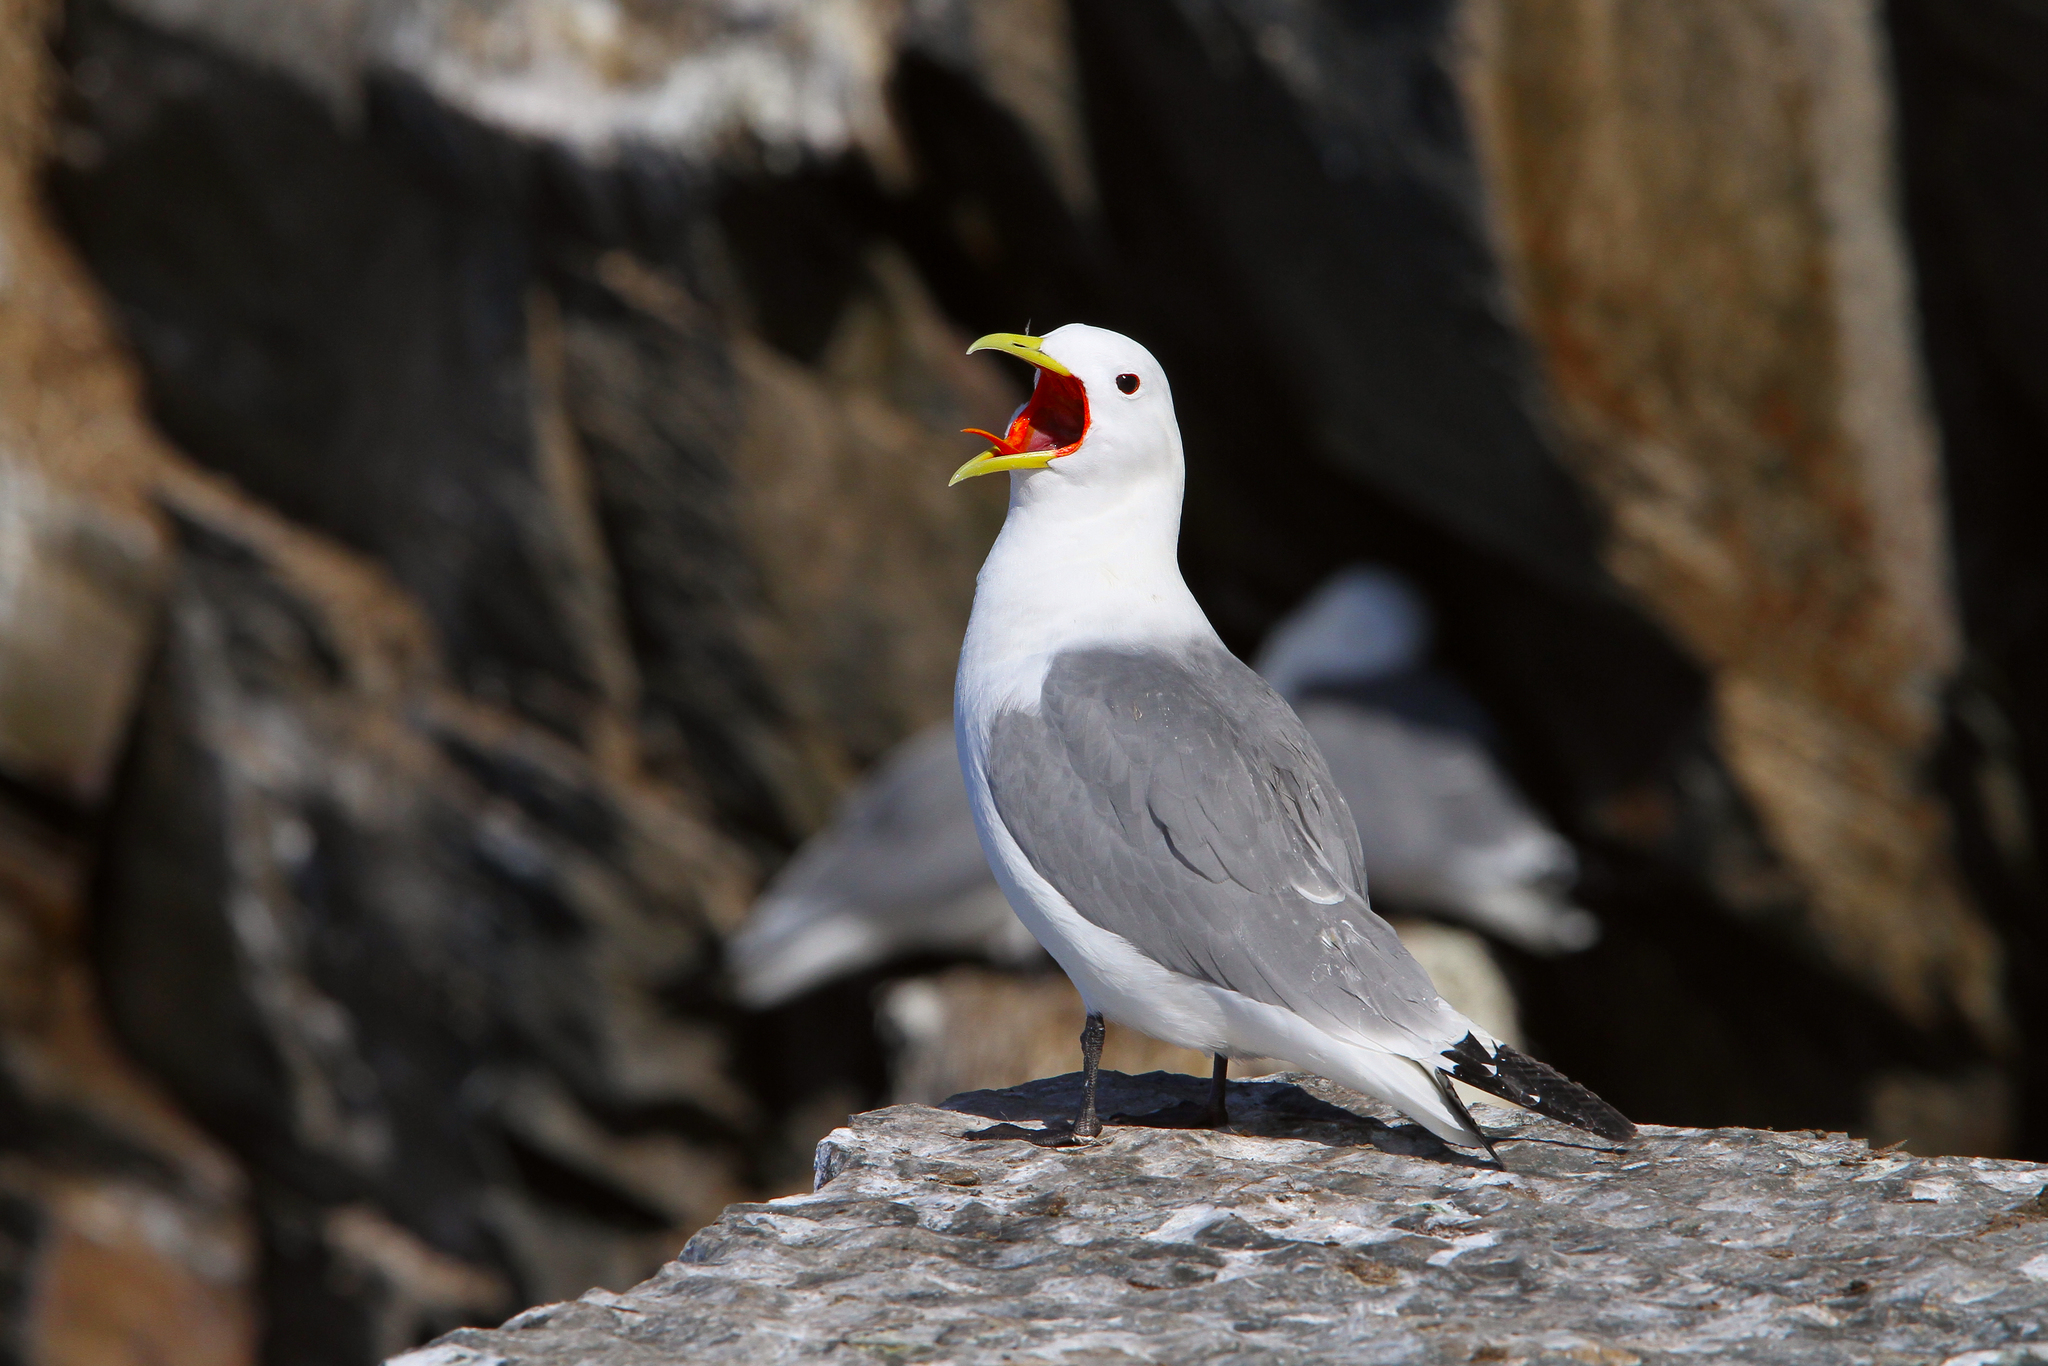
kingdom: Animalia
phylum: Chordata
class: Aves
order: Charadriiformes
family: Laridae
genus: Rissa
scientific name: Rissa tridactyla
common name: Black-legged kittiwake
